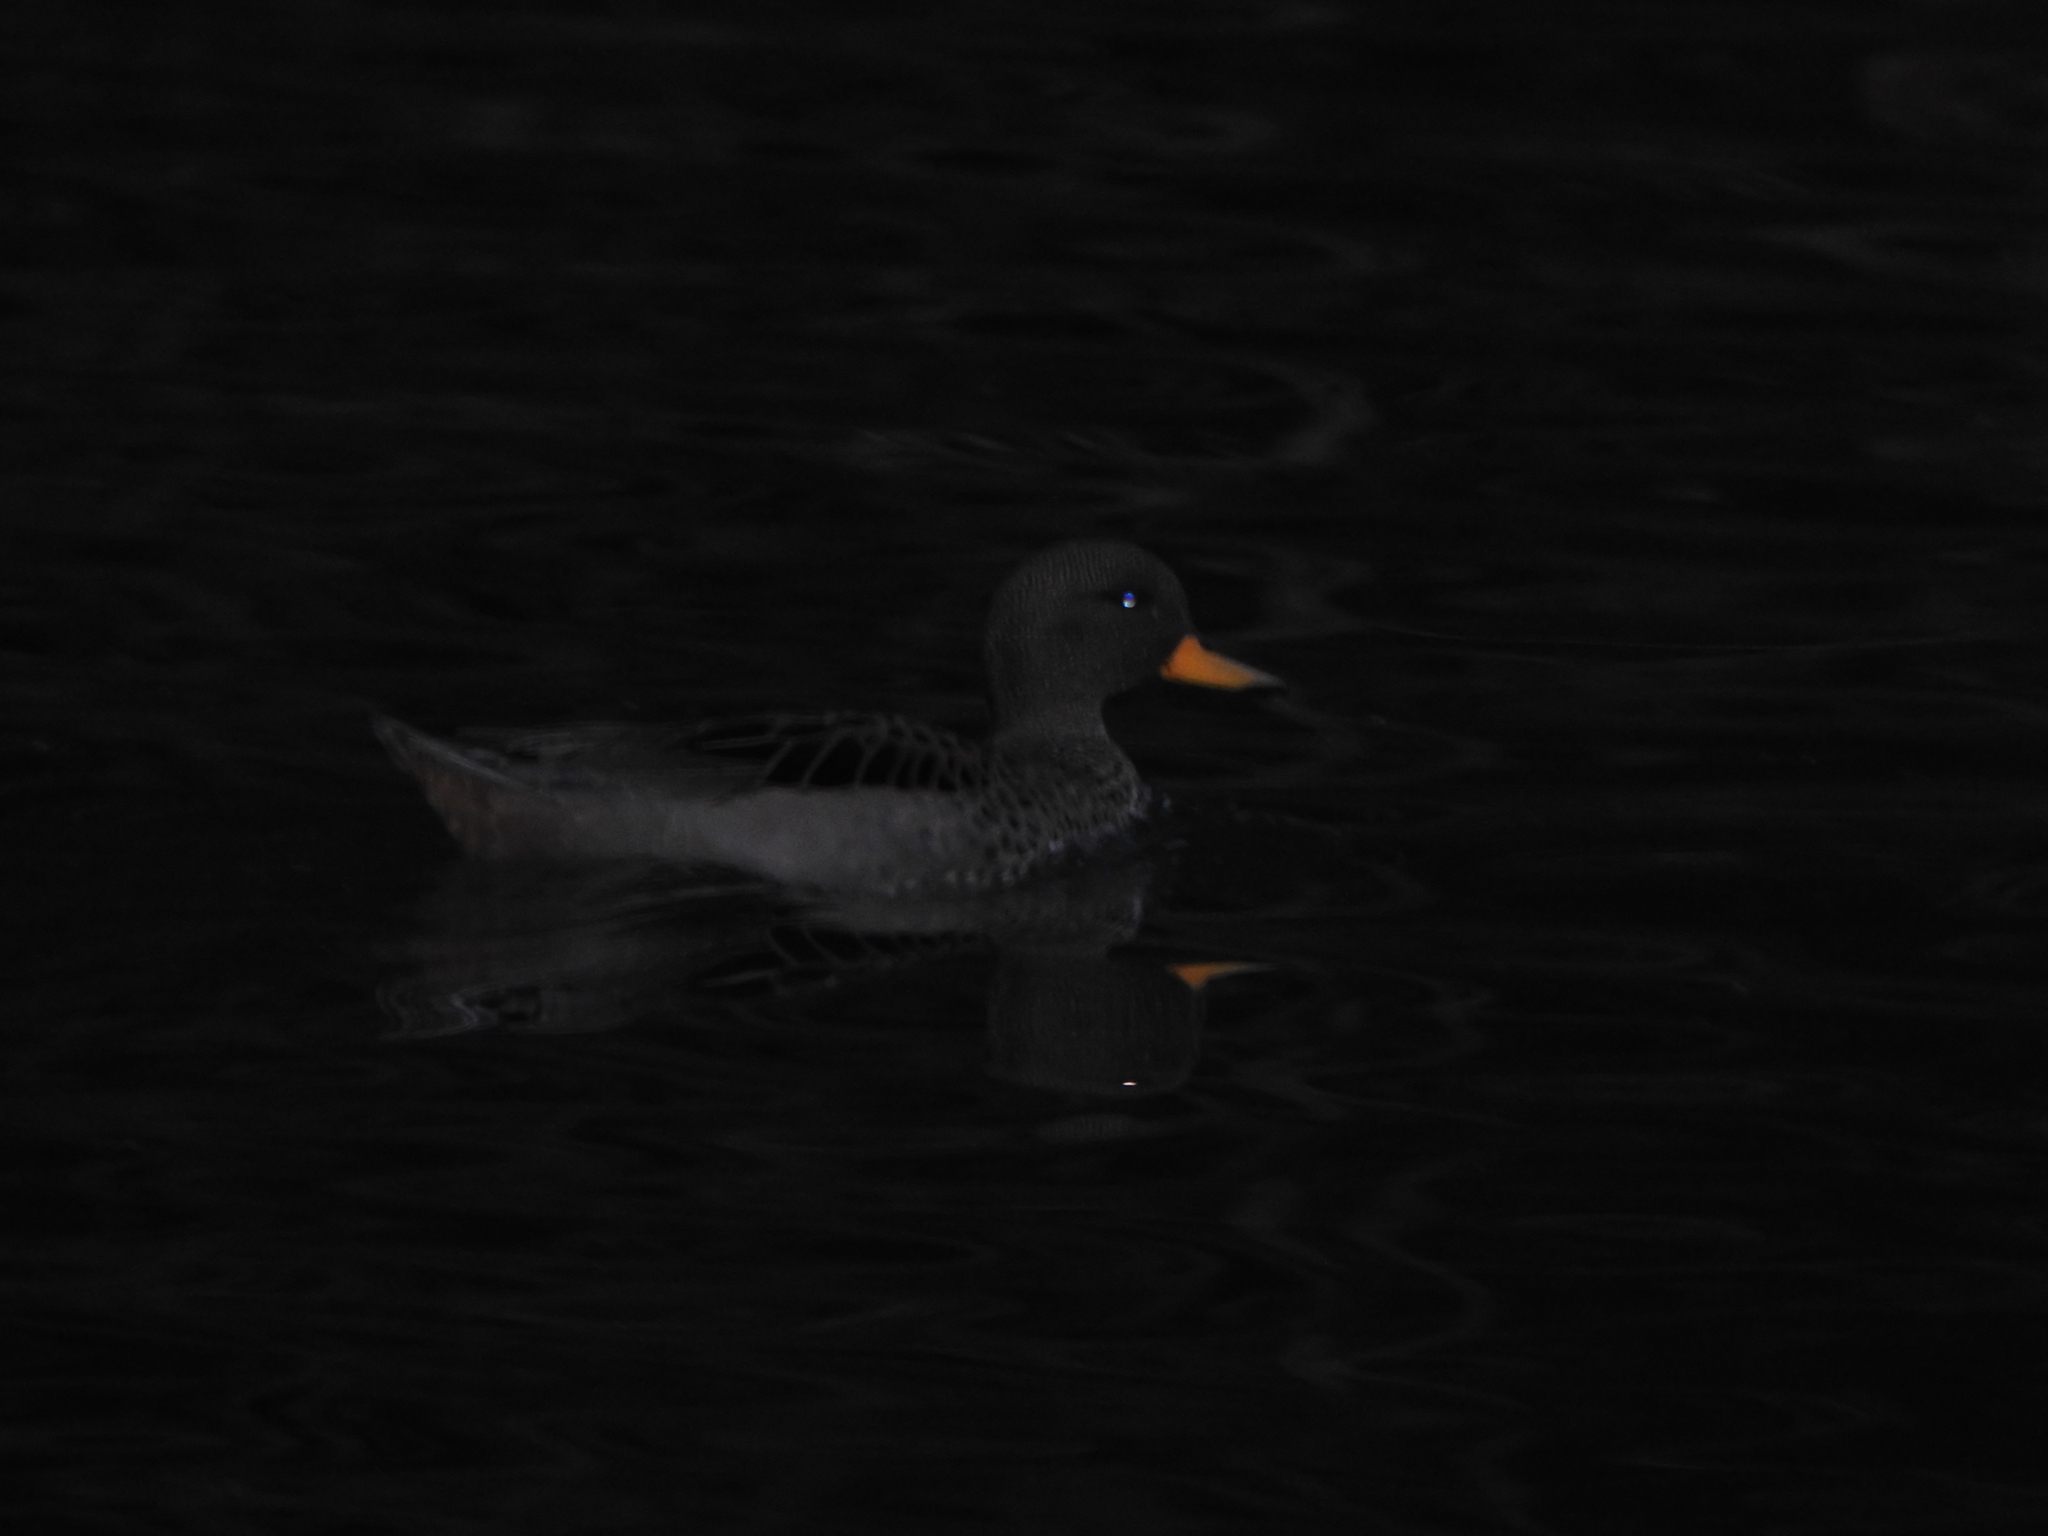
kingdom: Animalia
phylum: Chordata
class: Aves
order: Anseriformes
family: Anatidae
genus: Anas
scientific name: Anas flavirostris
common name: Yellow-billed teal
